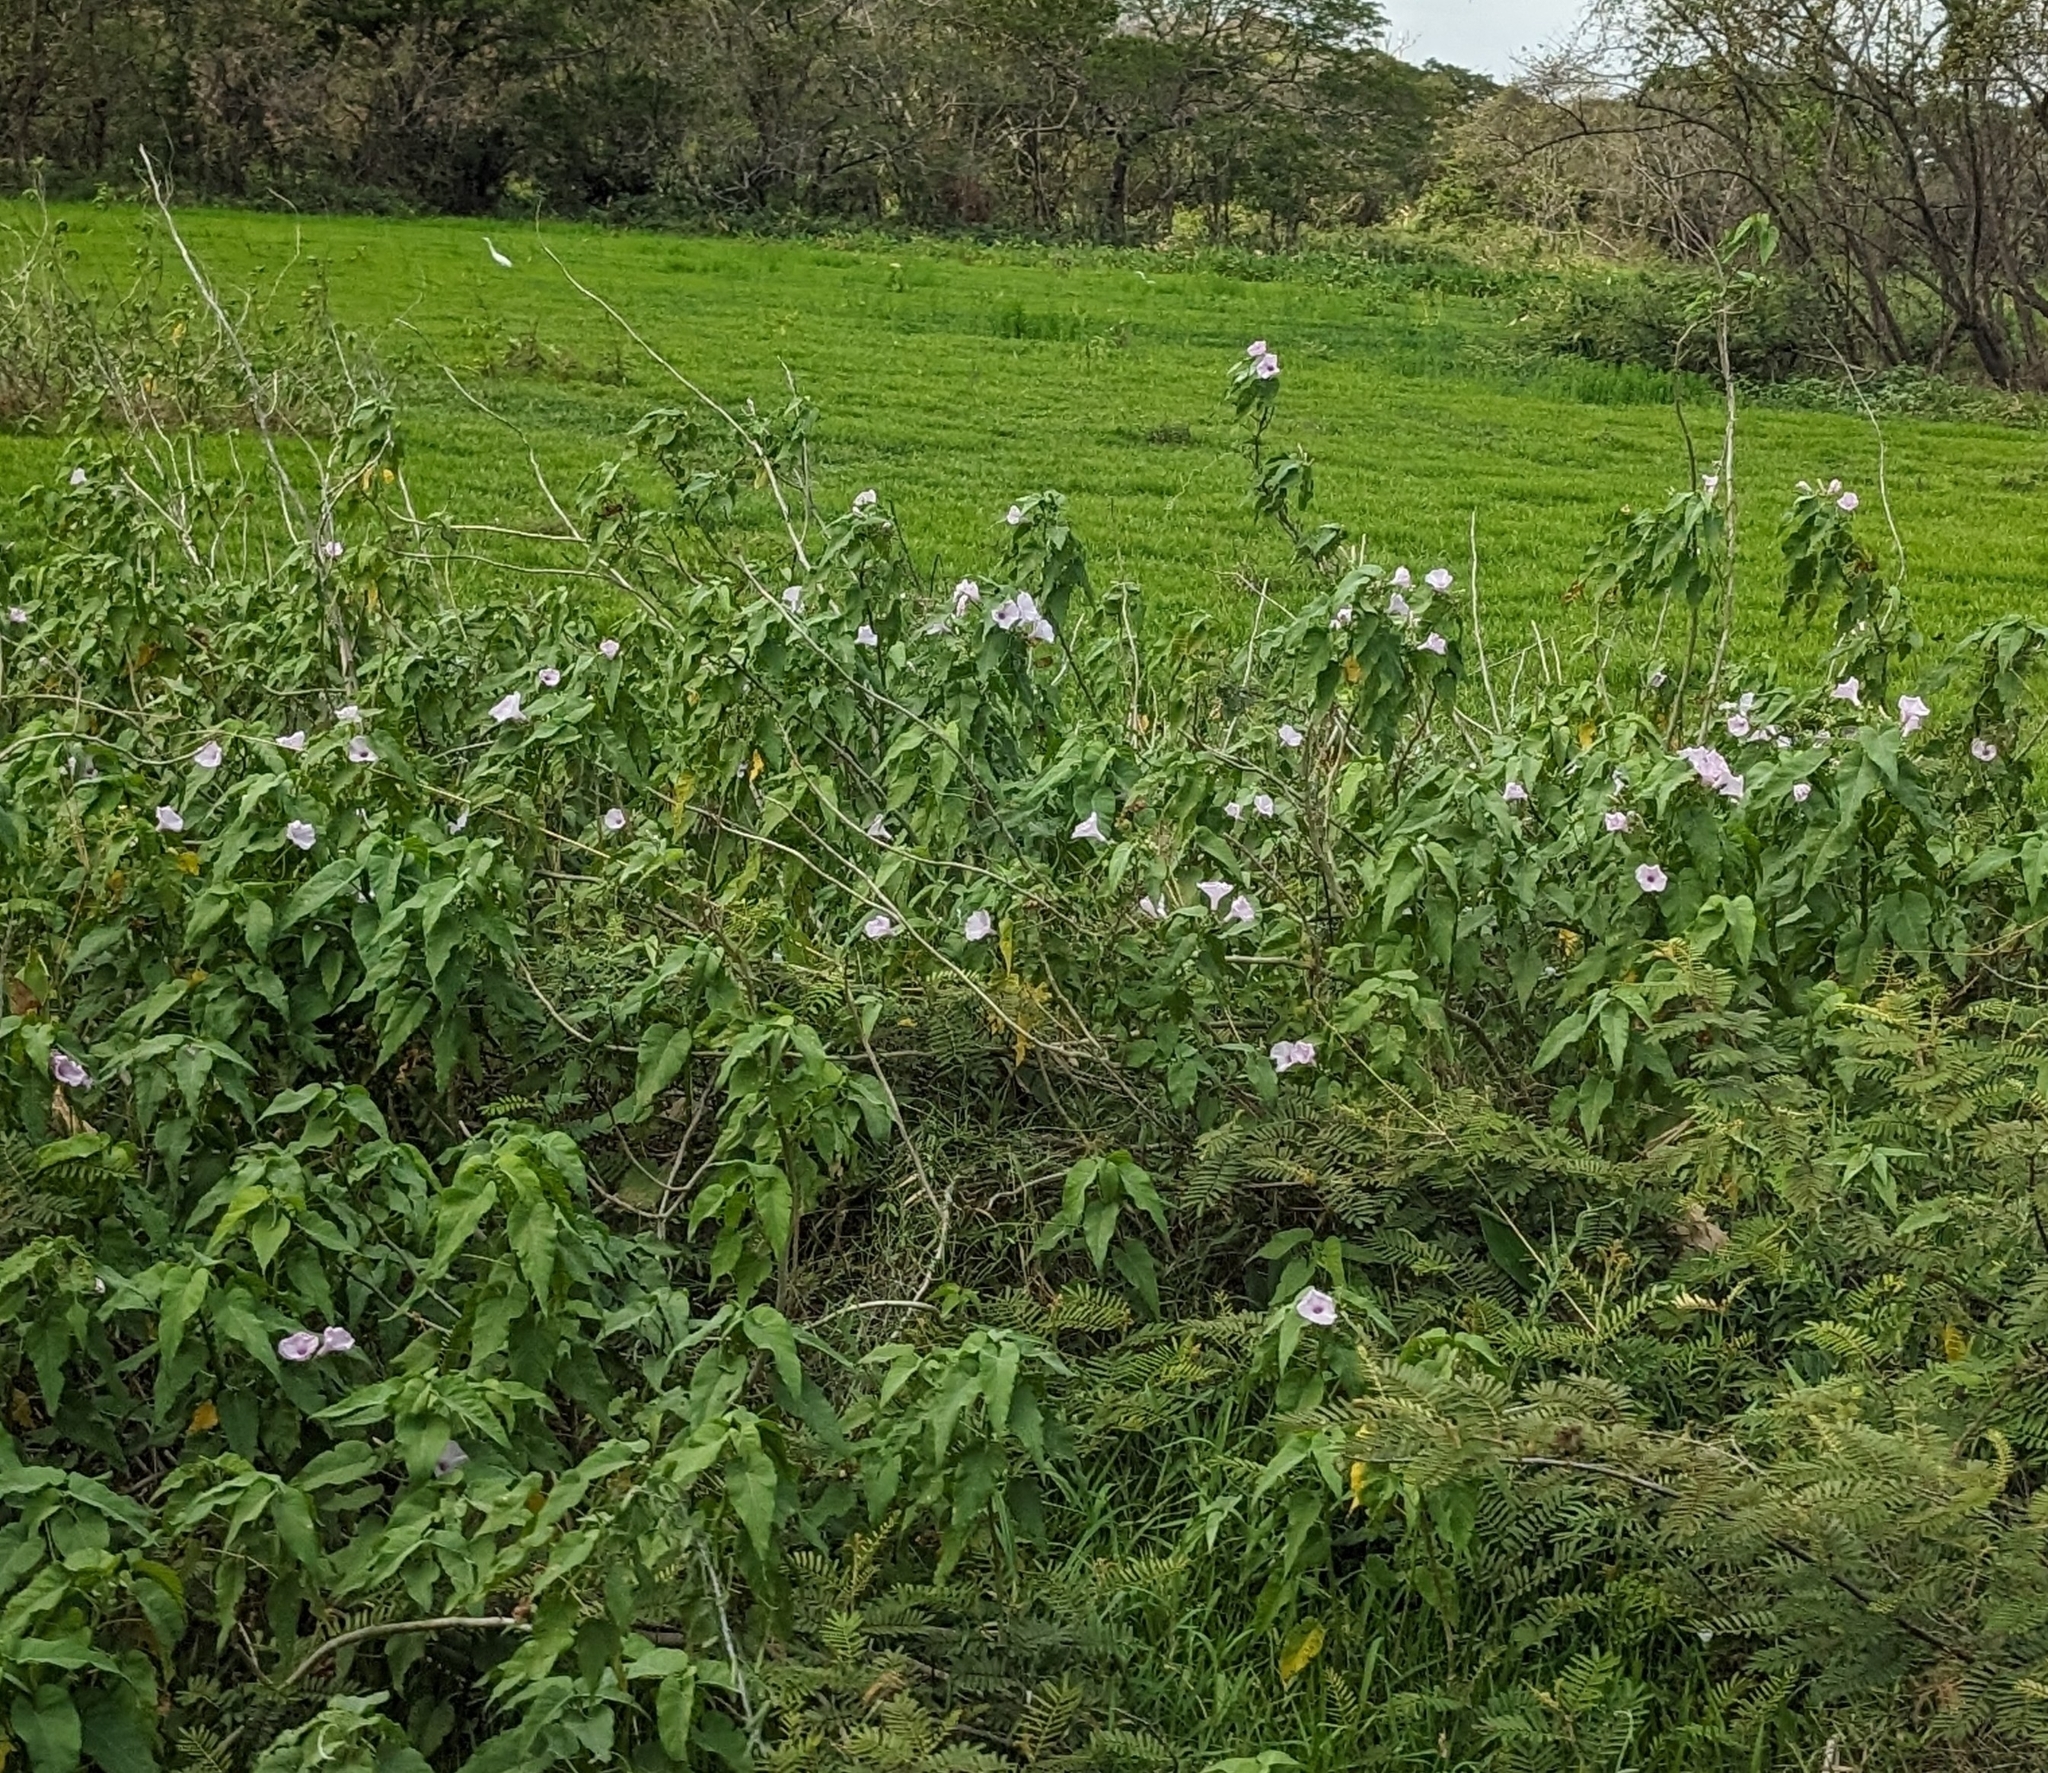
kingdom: Plantae
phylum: Tracheophyta
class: Magnoliopsida
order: Solanales
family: Convolvulaceae
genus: Ipomoea
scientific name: Ipomoea carnea
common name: Morning-glory
